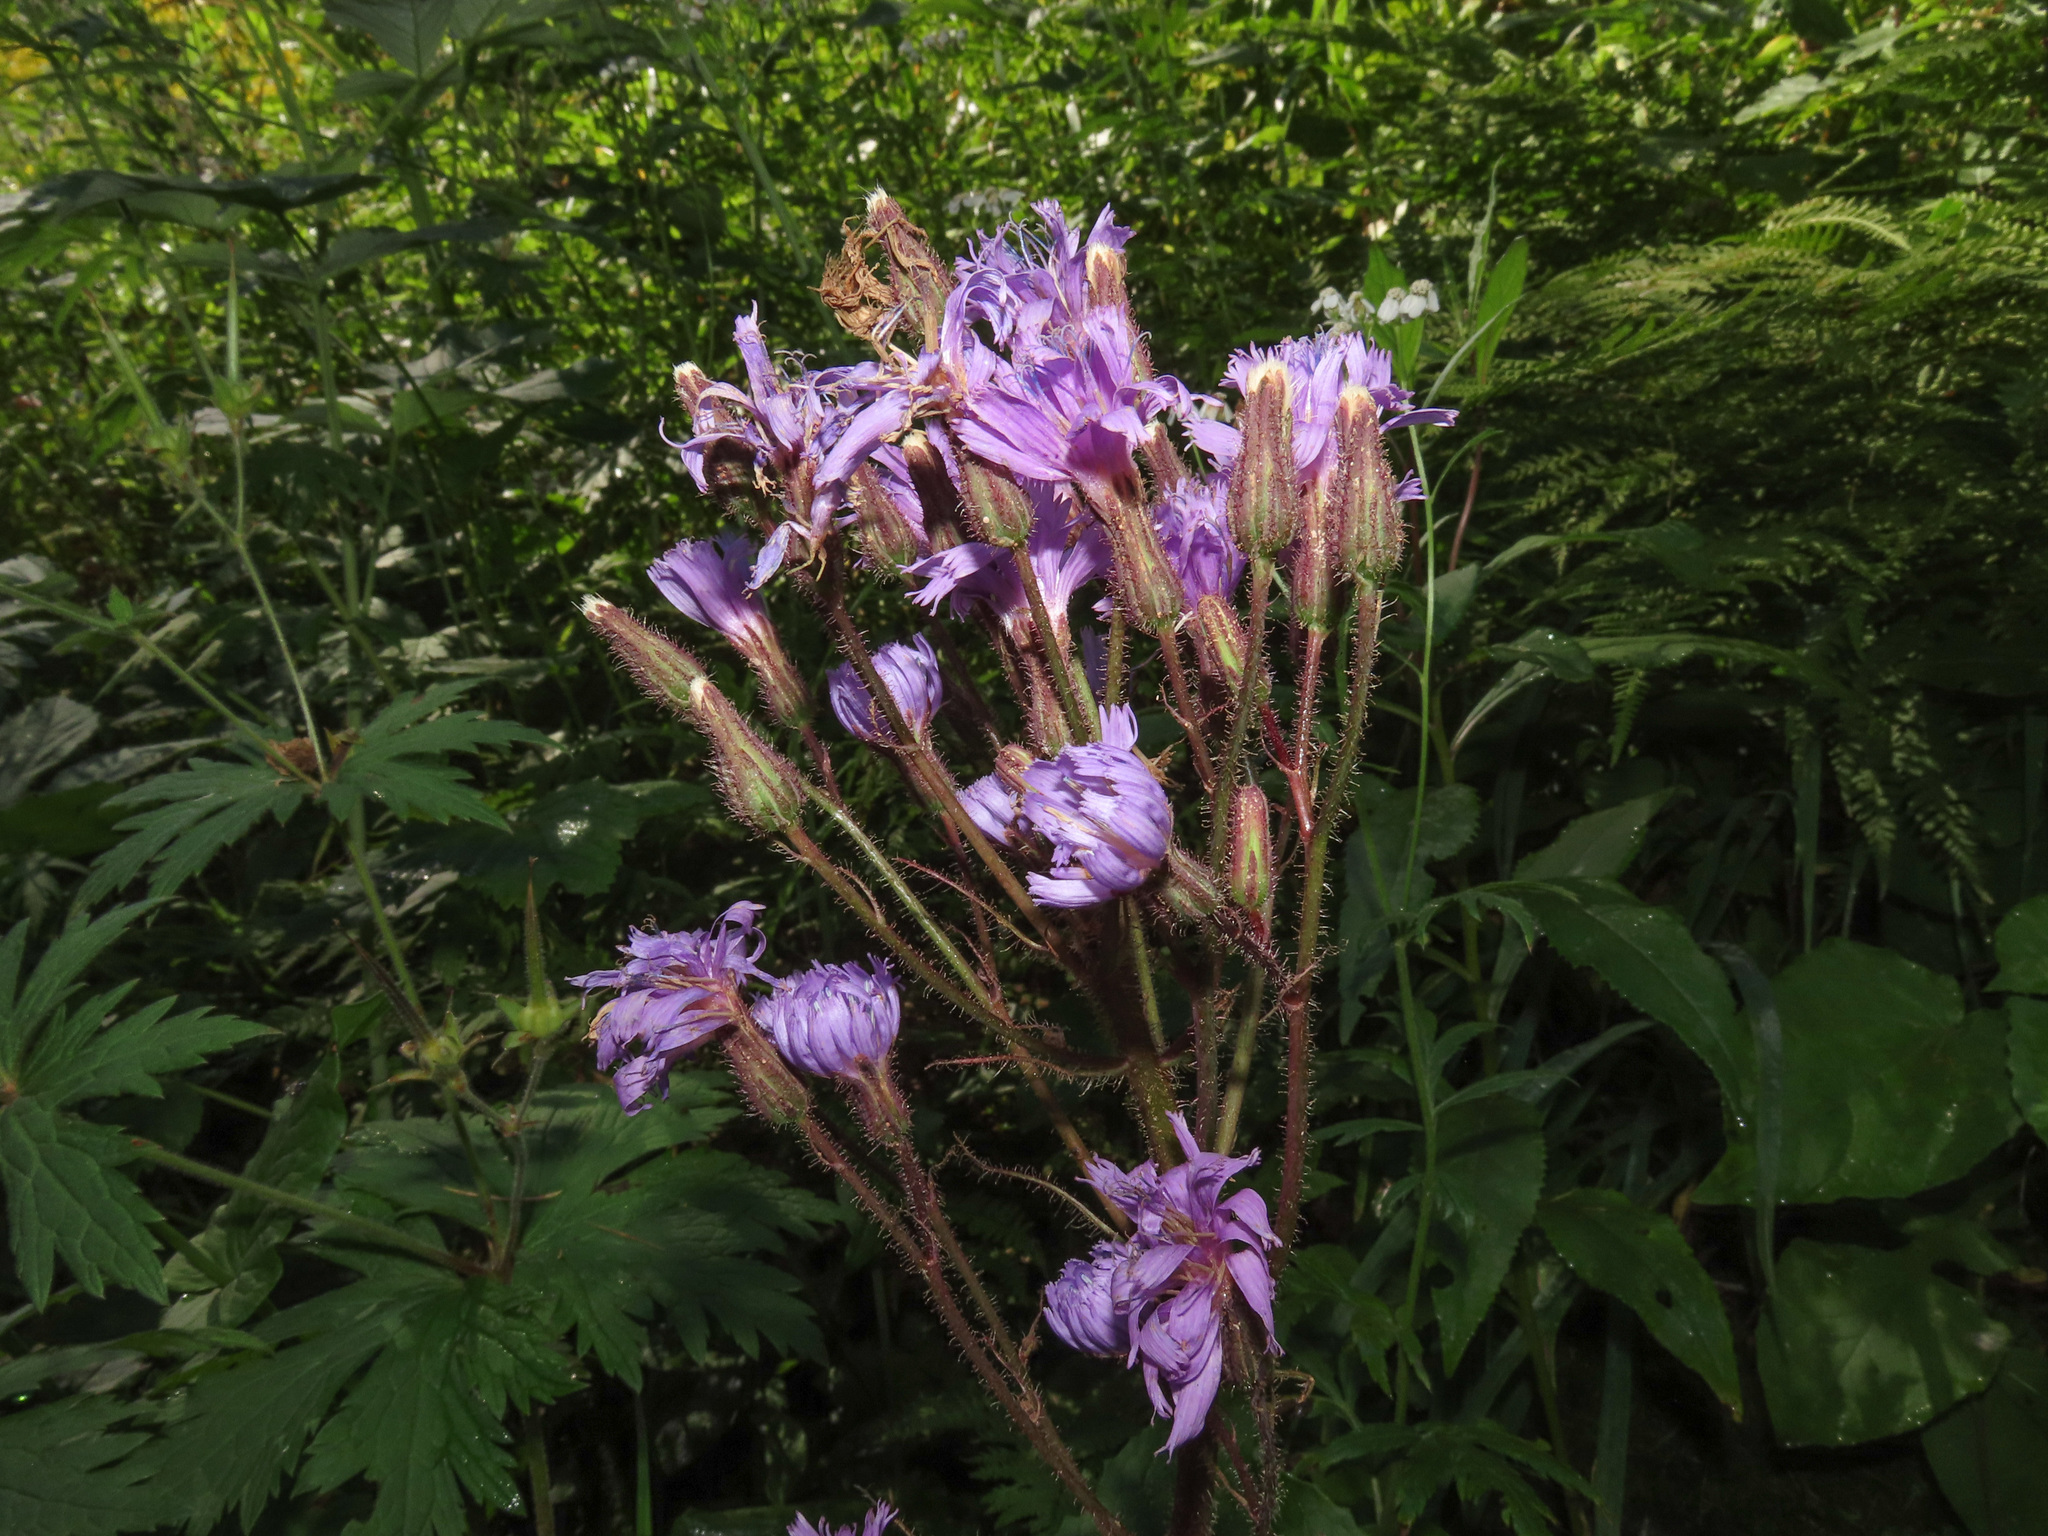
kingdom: Plantae
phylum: Tracheophyta
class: Magnoliopsida
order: Asterales
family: Asteraceae
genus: Cicerbita
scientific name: Cicerbita alpina
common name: Alpine blue-sow-thistle
